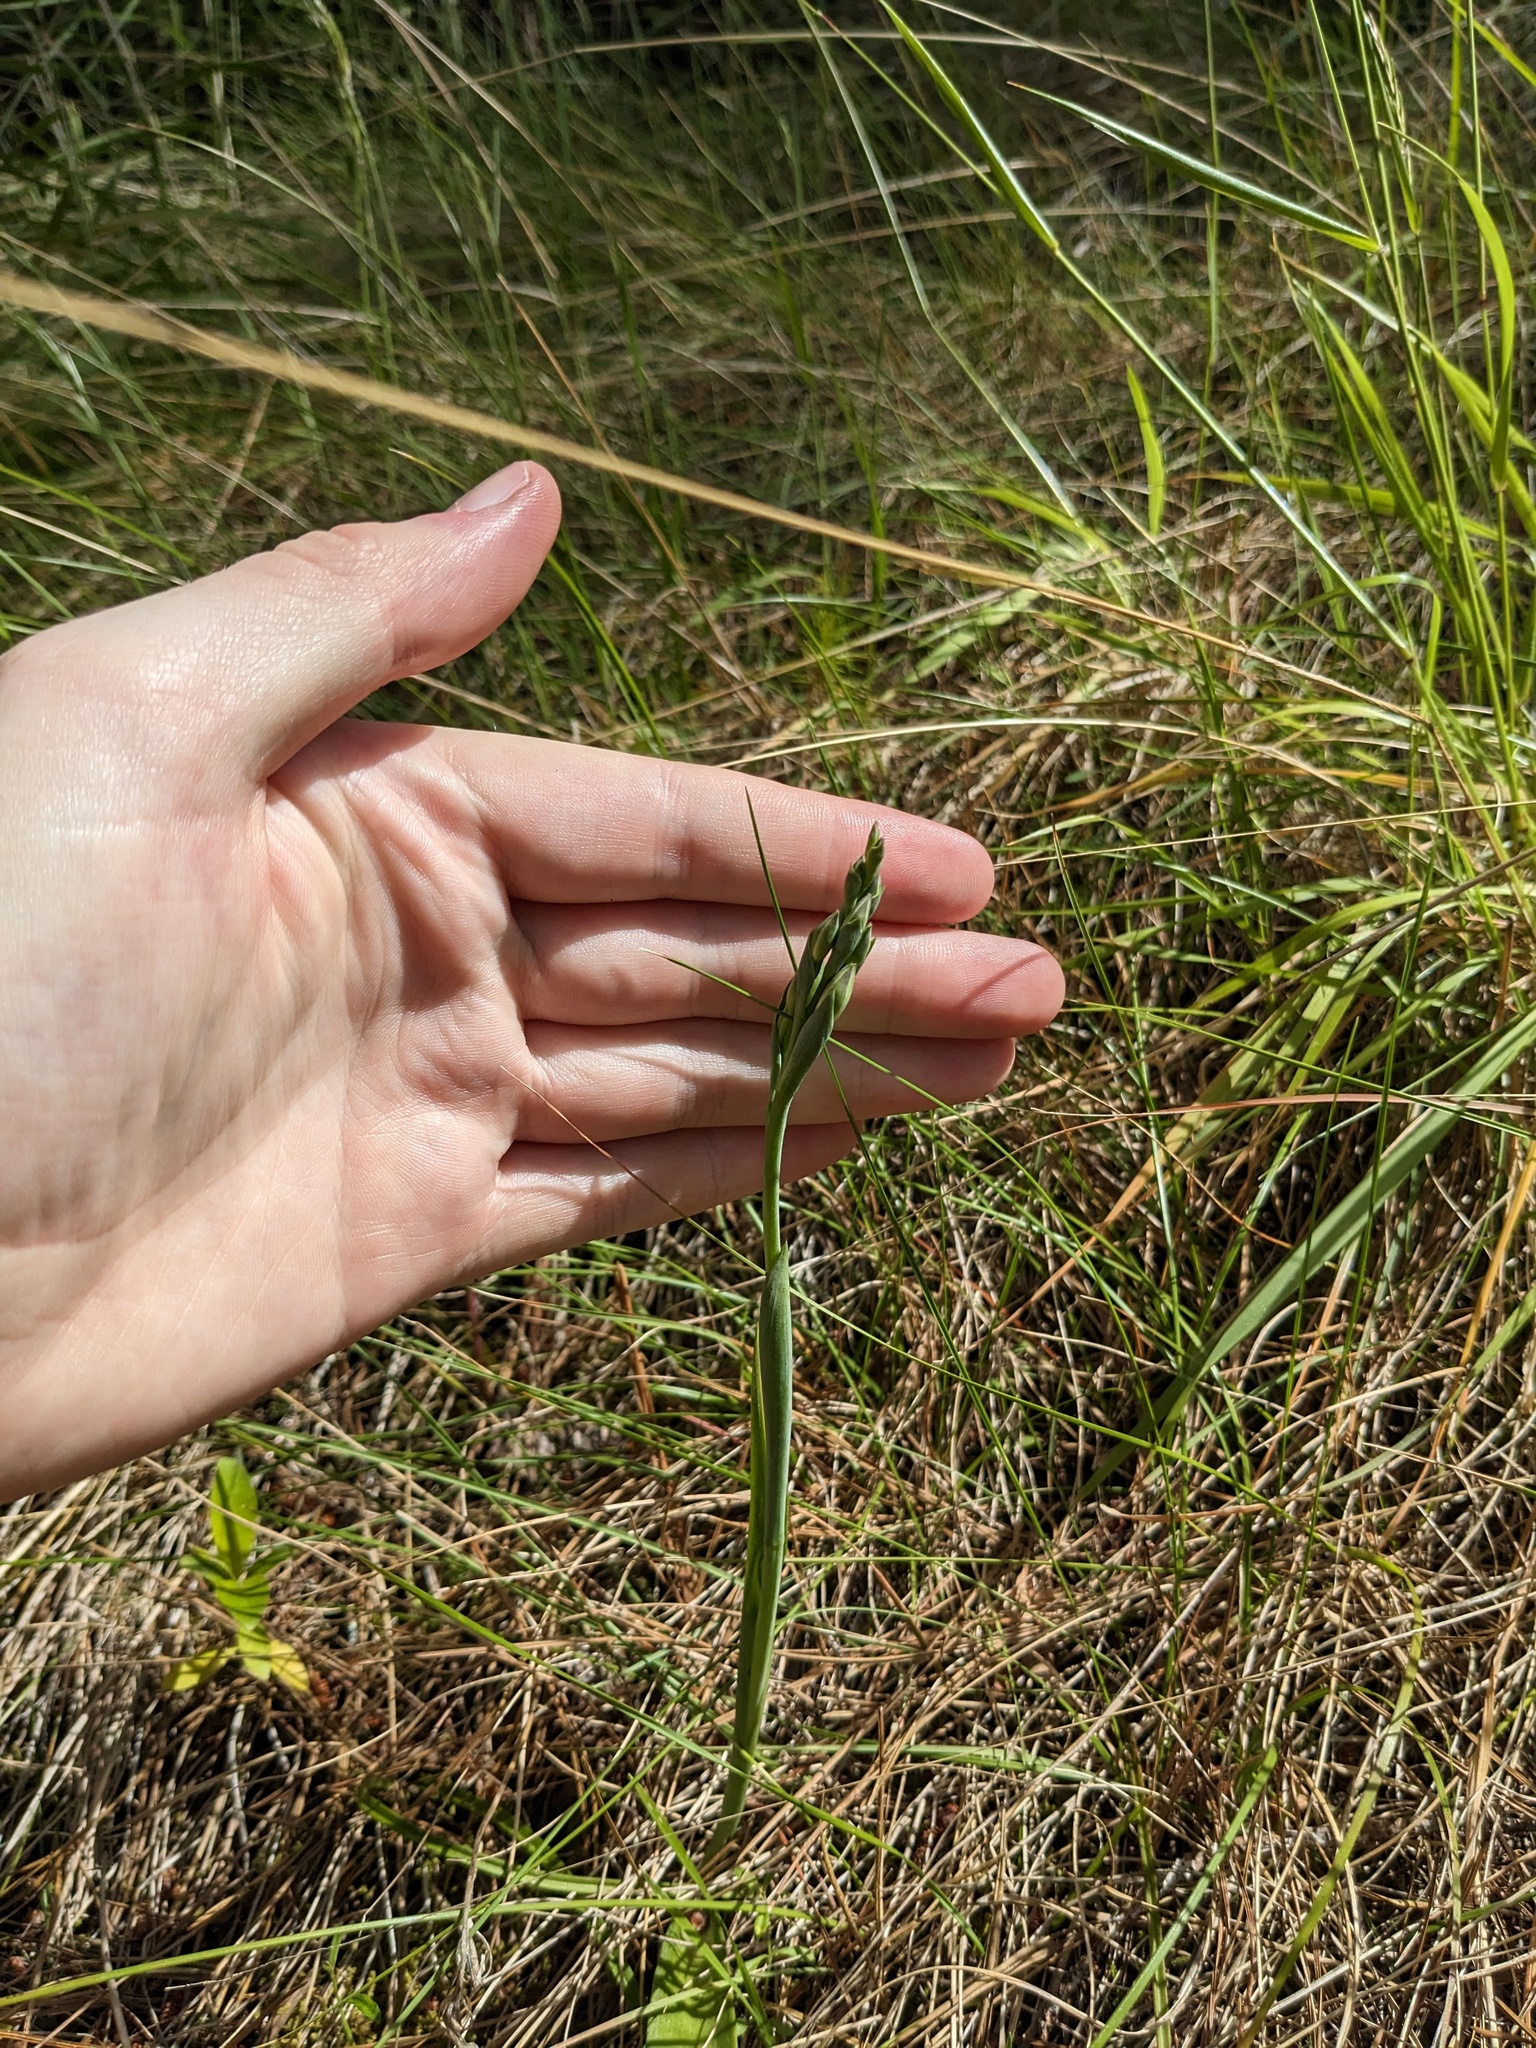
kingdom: Plantae
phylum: Tracheophyta
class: Liliopsida
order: Asparagales
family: Orchidaceae
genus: Thelymitra
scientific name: Thelymitra longifolia
